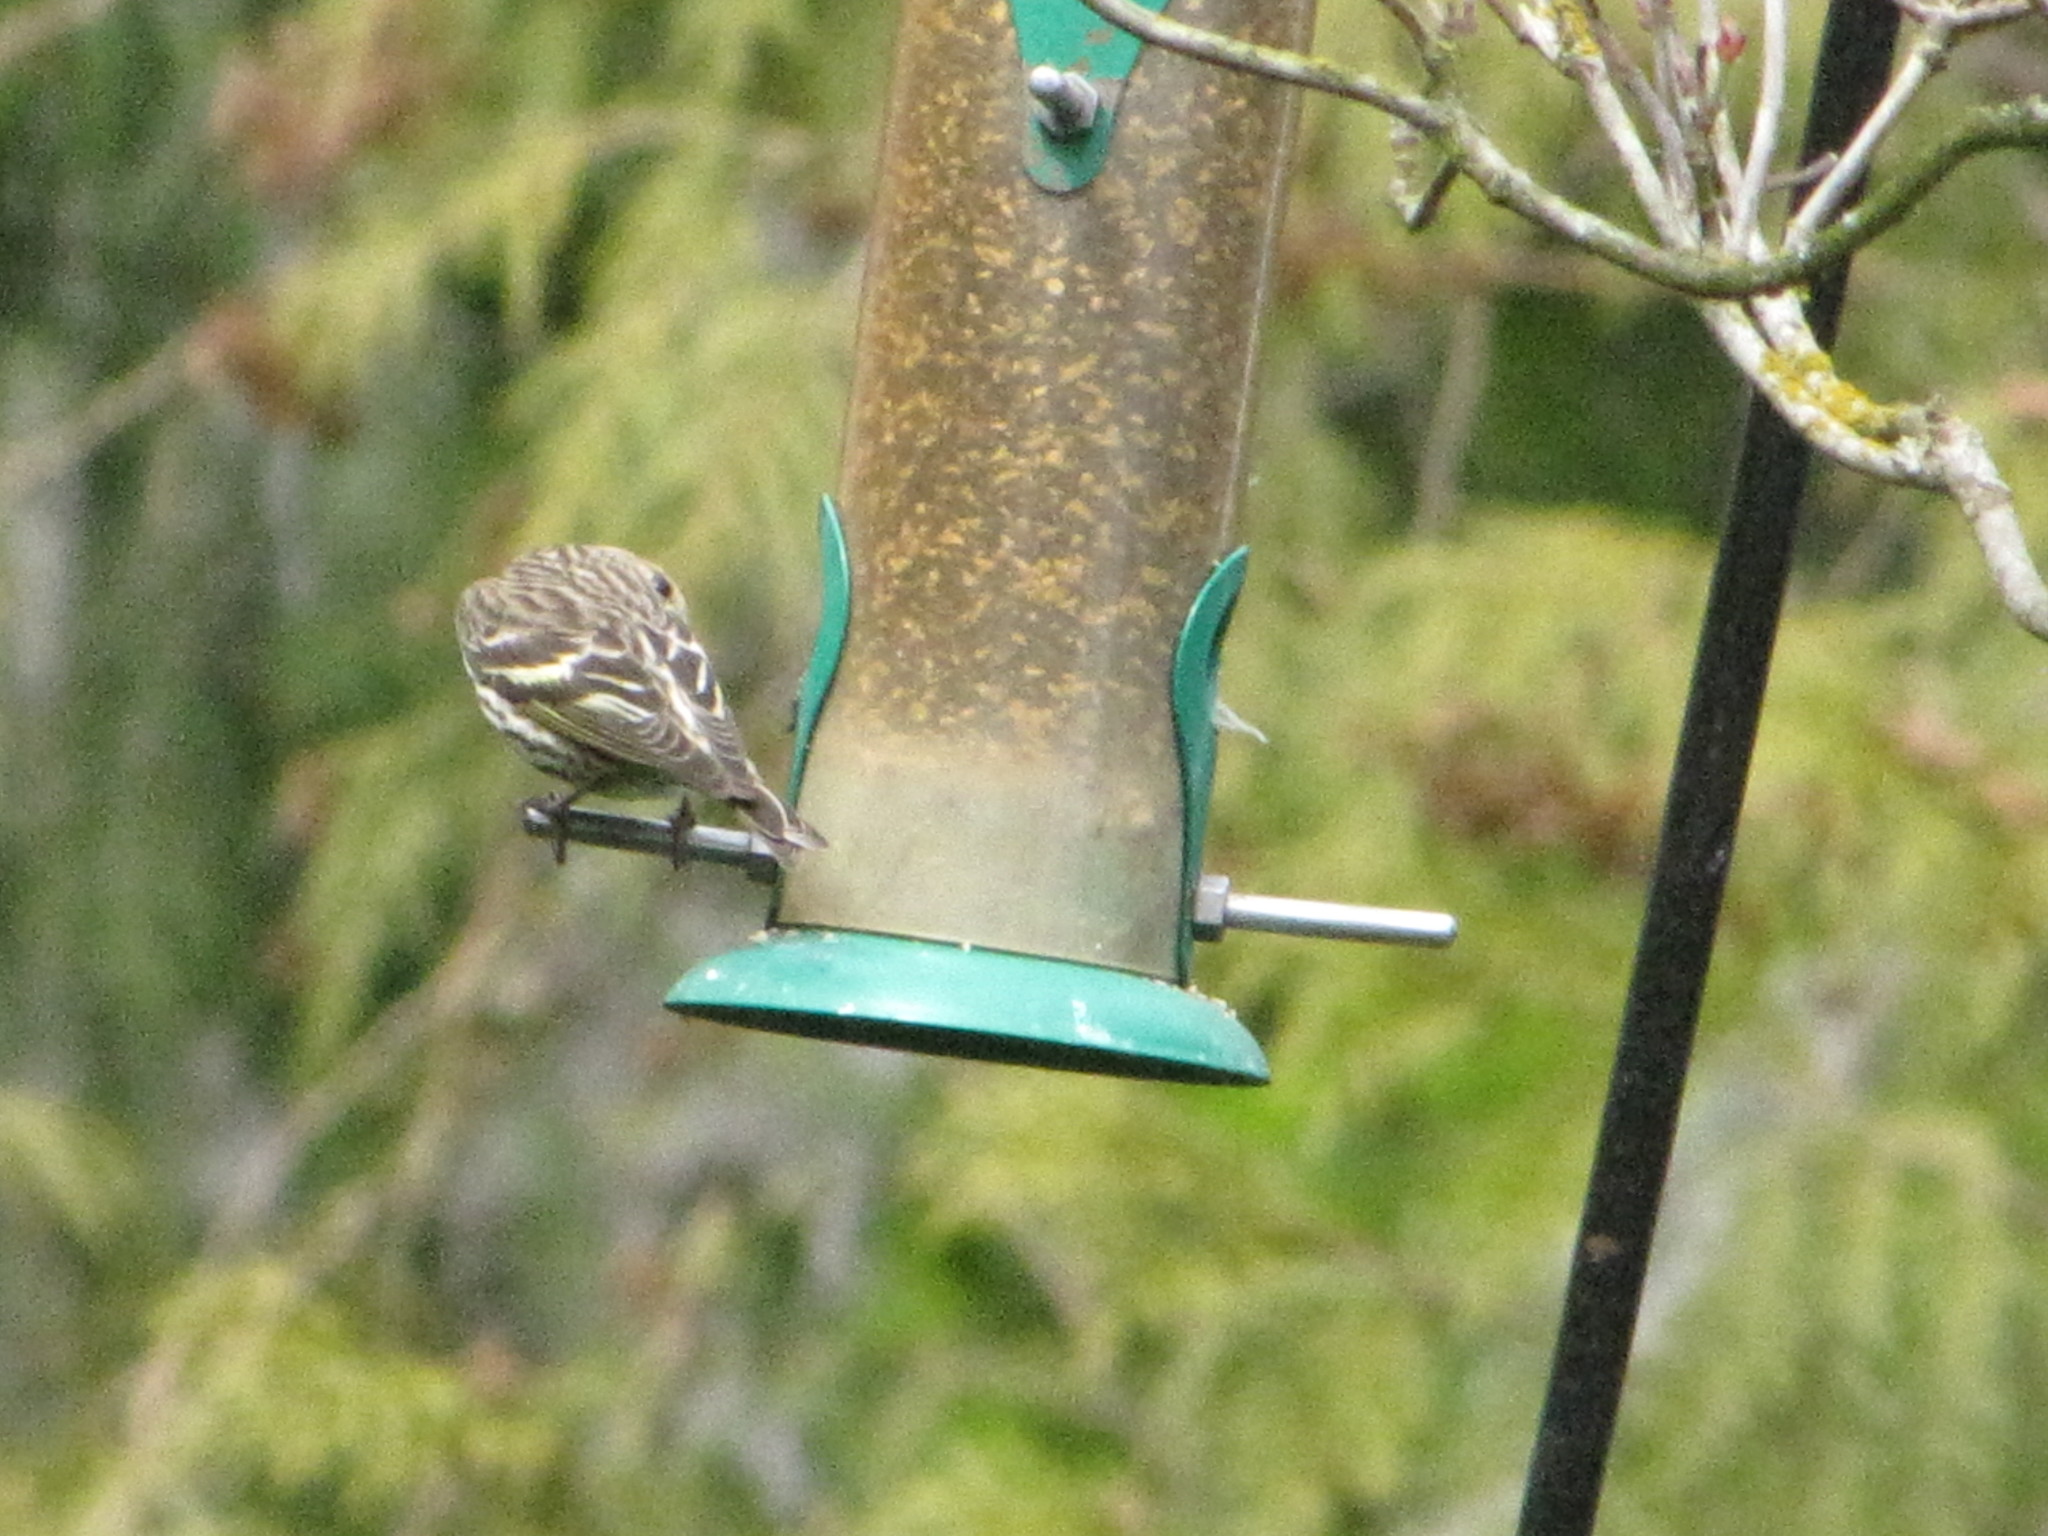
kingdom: Animalia
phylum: Chordata
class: Aves
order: Passeriformes
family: Fringillidae
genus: Spinus
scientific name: Spinus pinus
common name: Pine siskin
